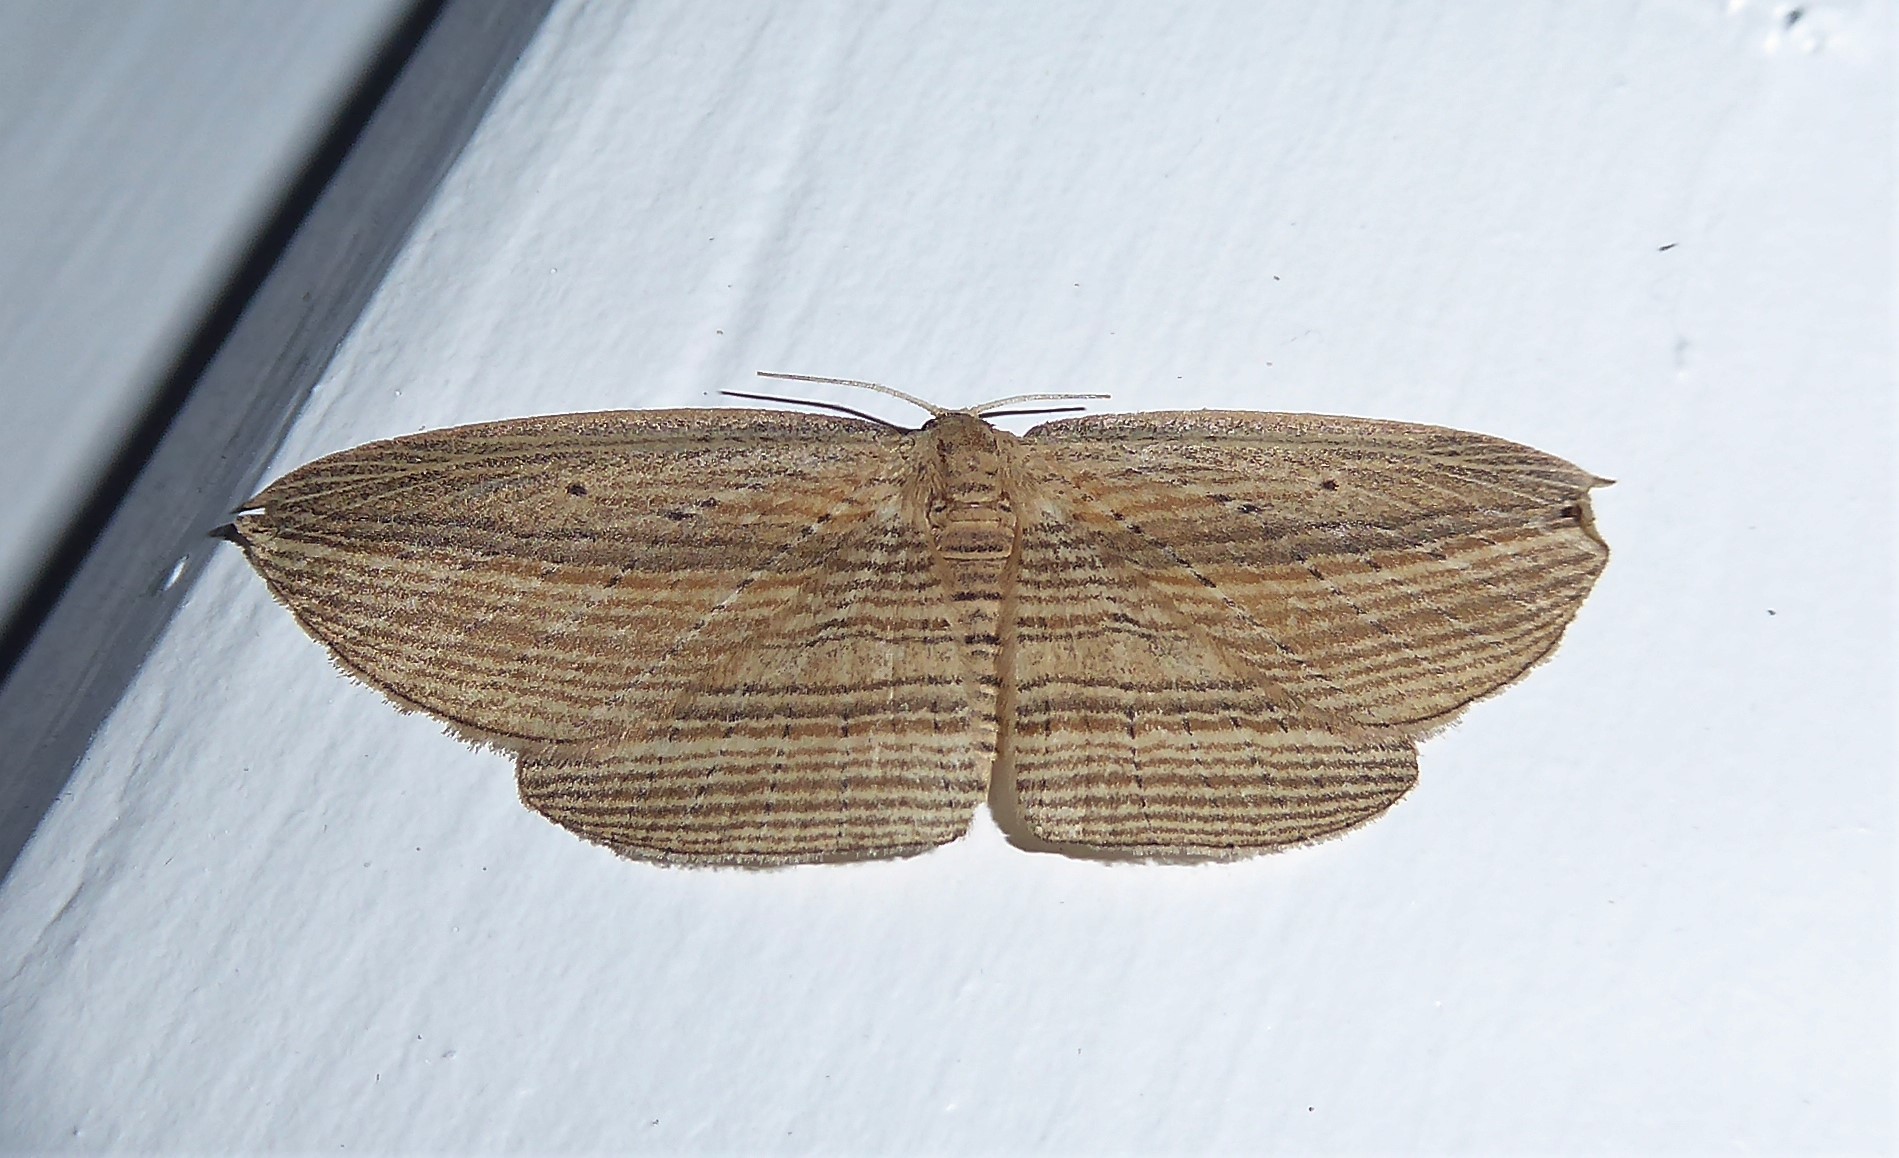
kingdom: Animalia
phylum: Arthropoda
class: Insecta
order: Lepidoptera
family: Geometridae
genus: Epiphryne
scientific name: Epiphryne verriculata
